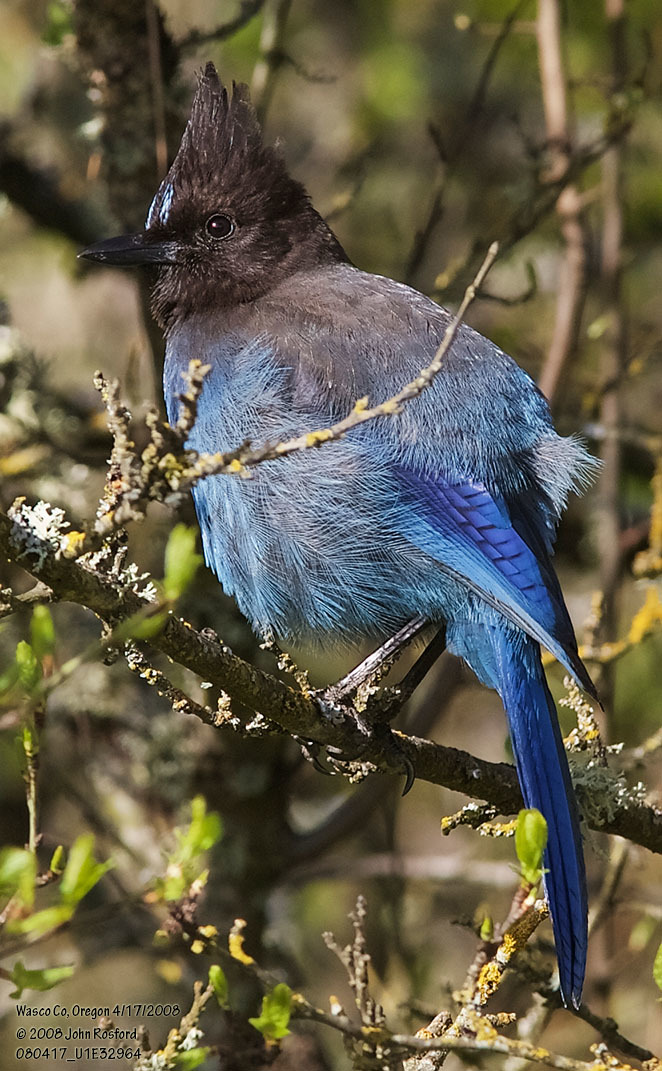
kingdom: Animalia
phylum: Chordata
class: Aves
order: Passeriformes
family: Corvidae
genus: Cyanocitta
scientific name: Cyanocitta stelleri
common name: Steller's jay
